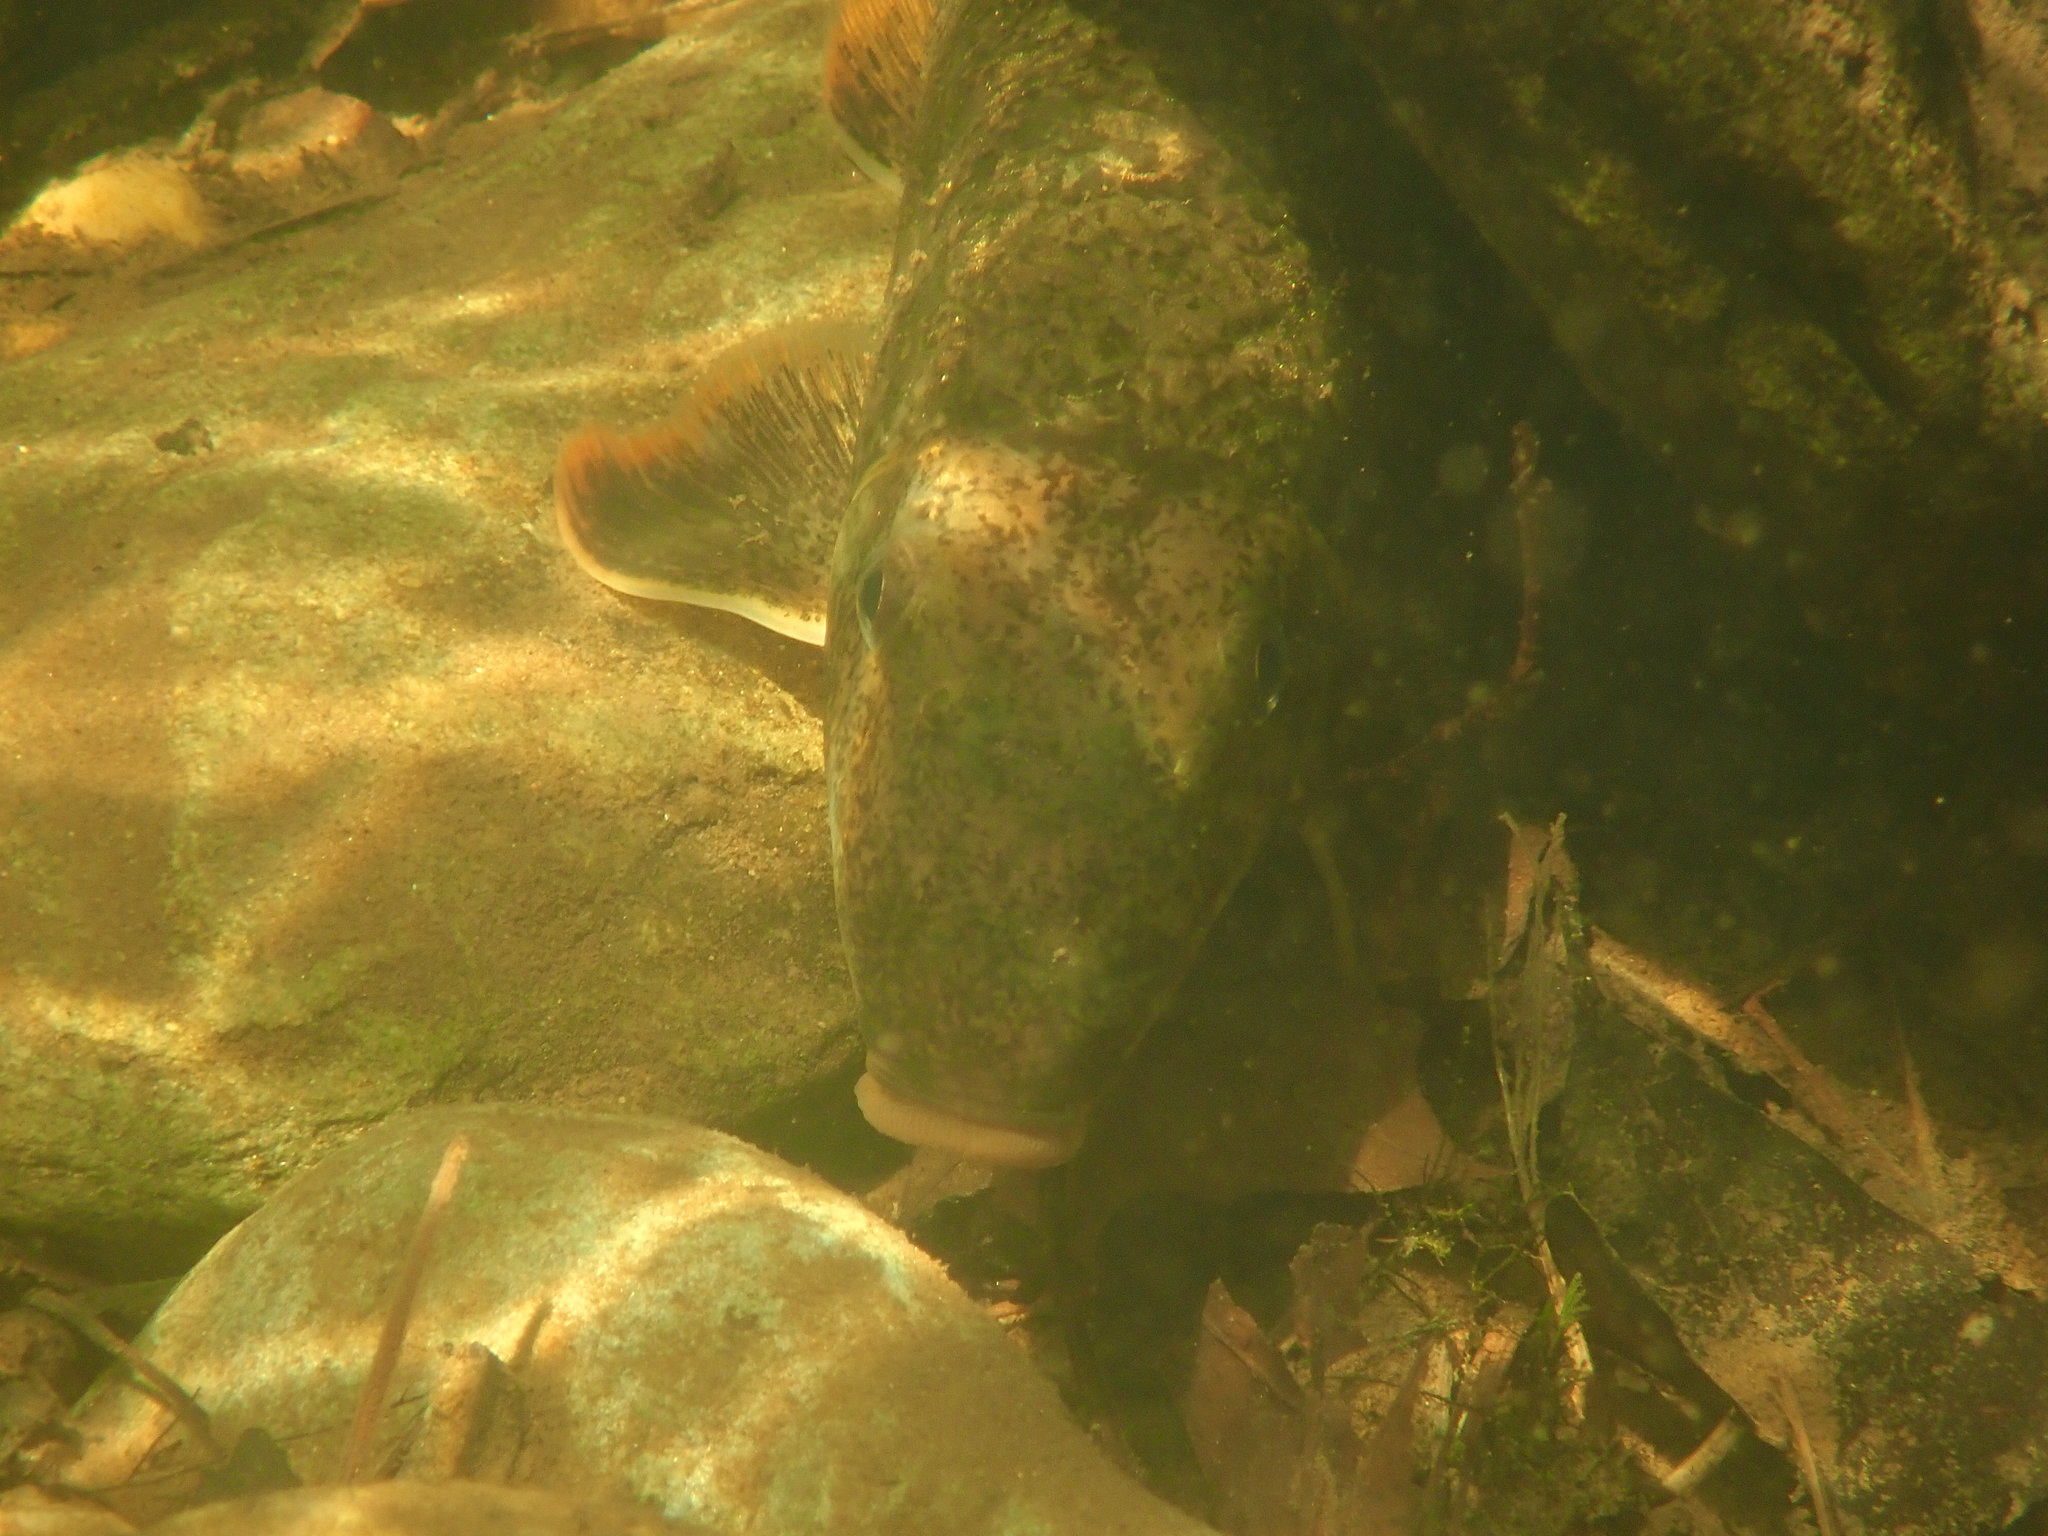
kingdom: Animalia
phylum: Chordata
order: Cypriniformes
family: Catostomidae
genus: Hypentelium
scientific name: Hypentelium etowanum
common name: Alabama hog sucker
